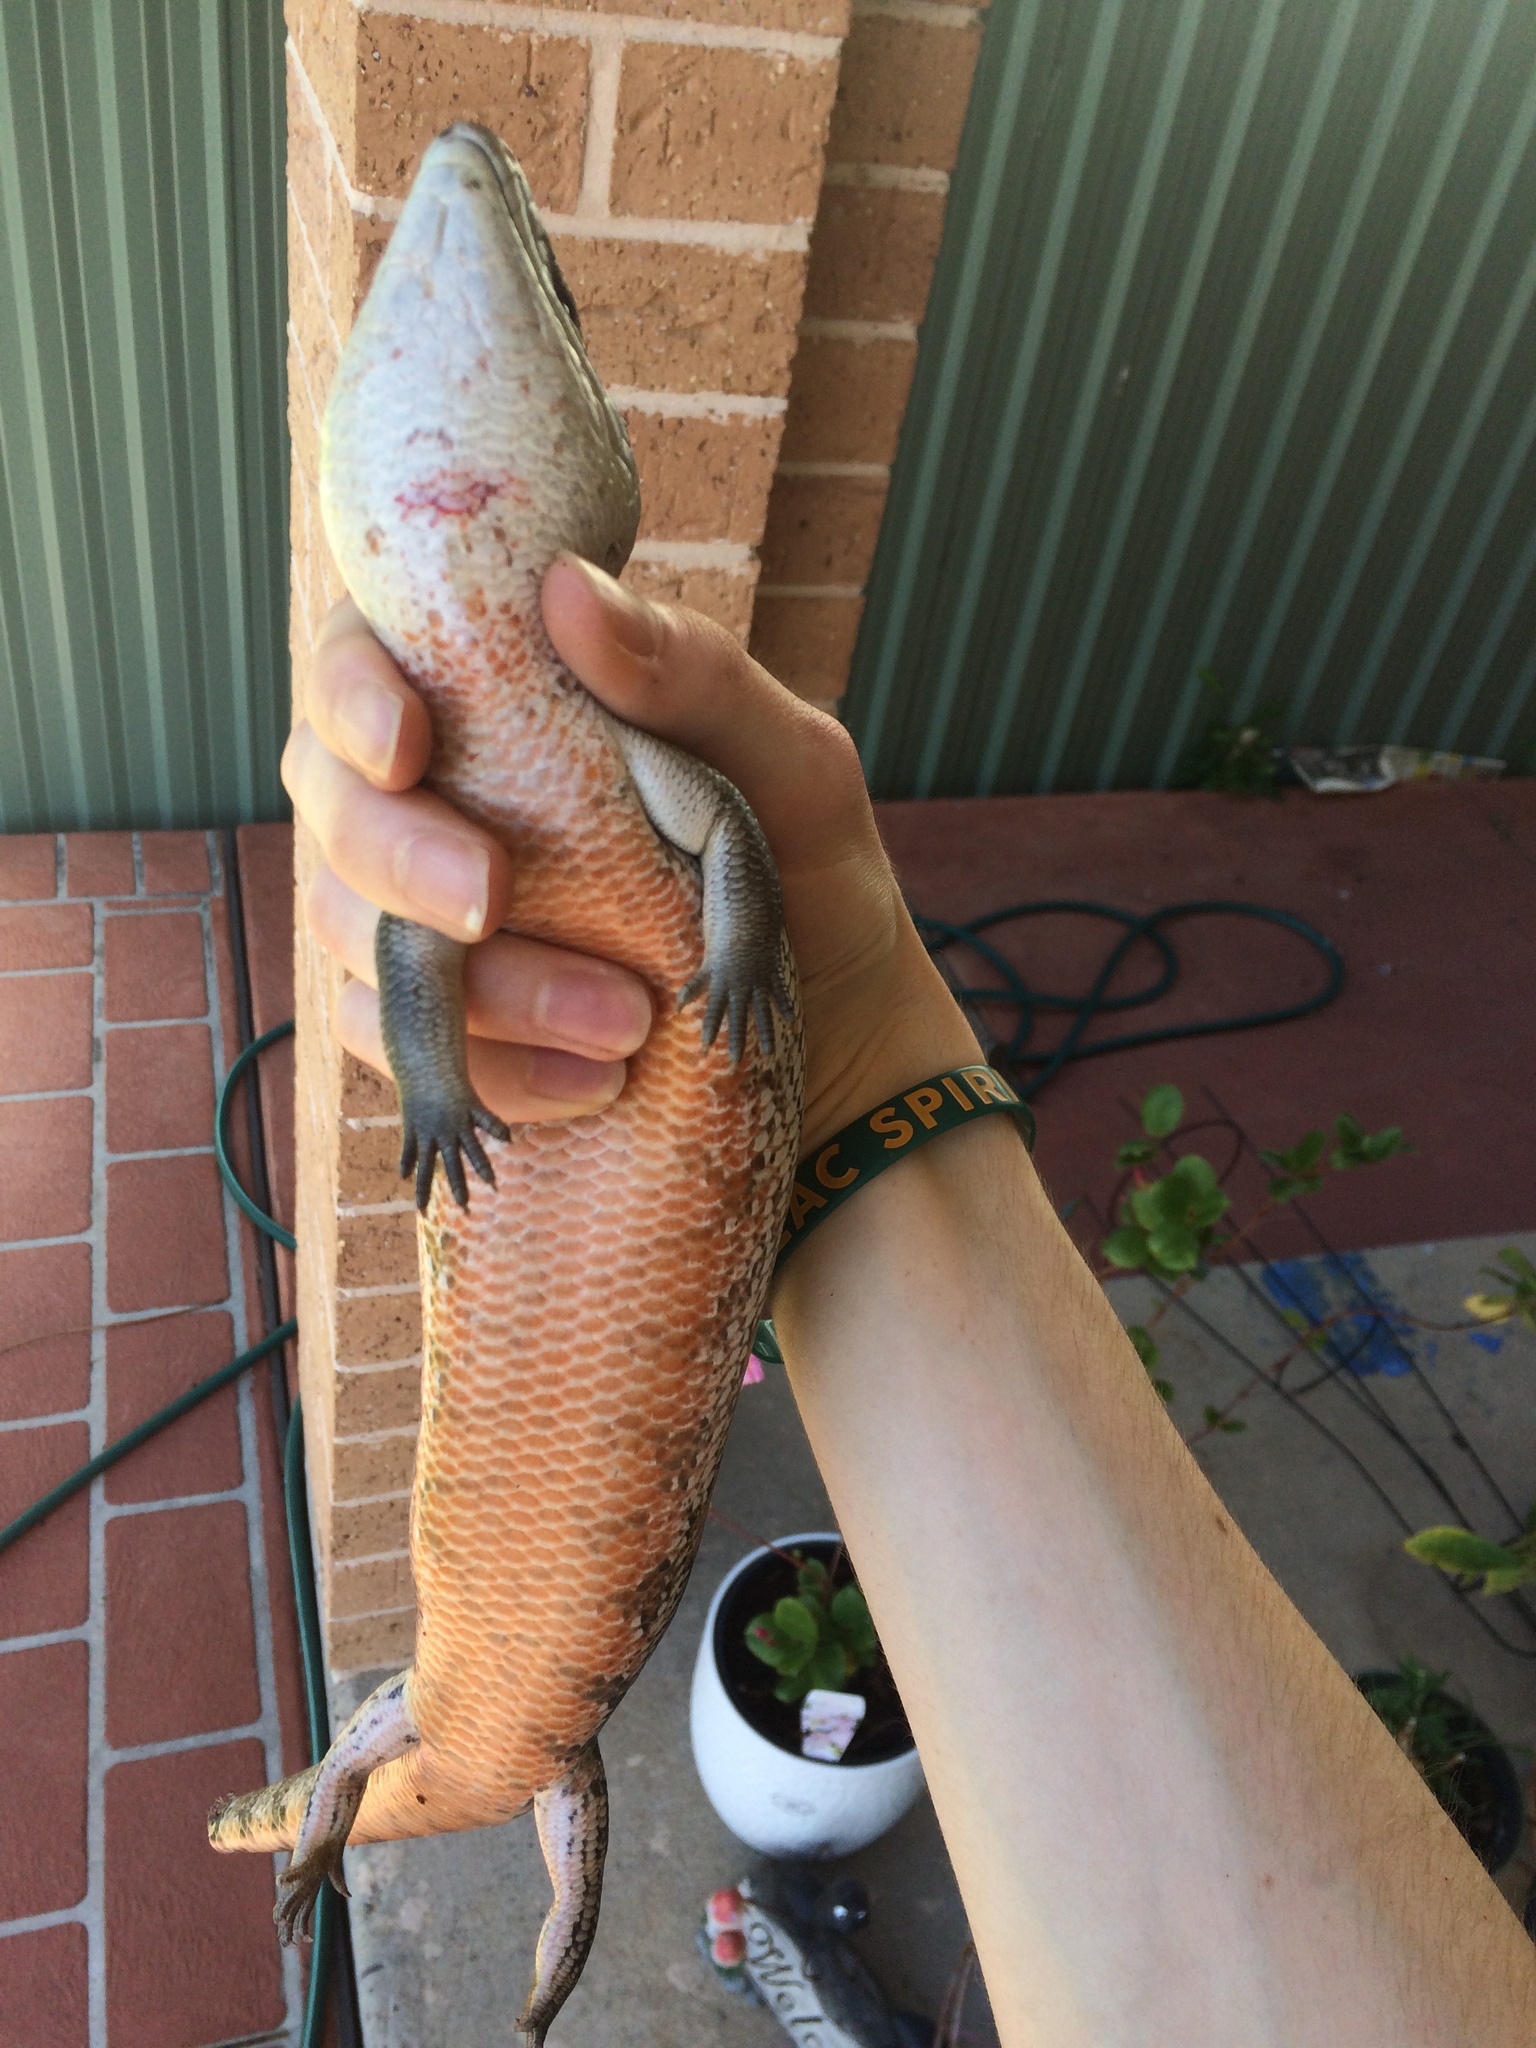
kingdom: Animalia
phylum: Chordata
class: Squamata
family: Scincidae
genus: Tiliqua
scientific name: Tiliqua scincoides
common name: Common bluetongue
